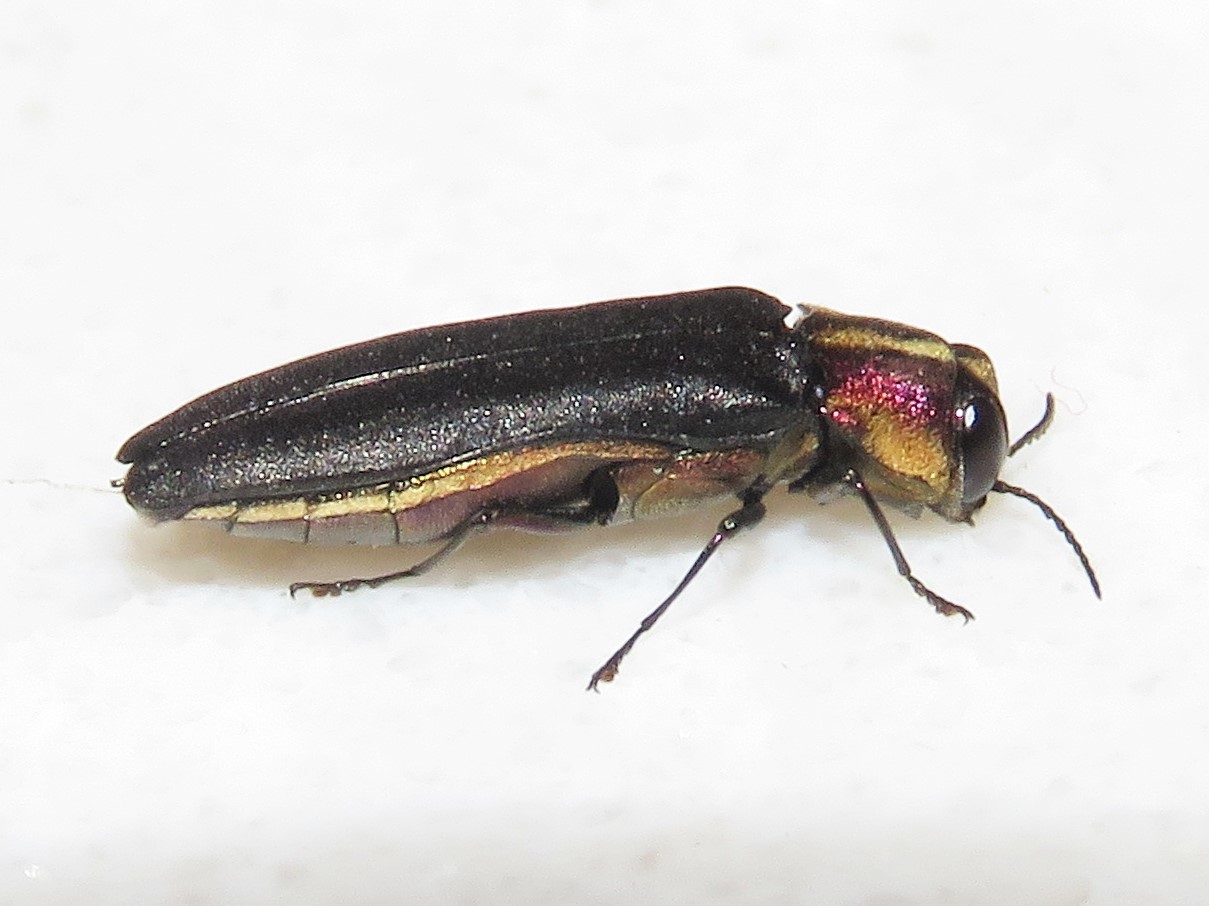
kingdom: Animalia
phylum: Arthropoda
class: Insecta
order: Coleoptera
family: Buprestidae
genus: Agrilus
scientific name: Agrilus vittaticollis
